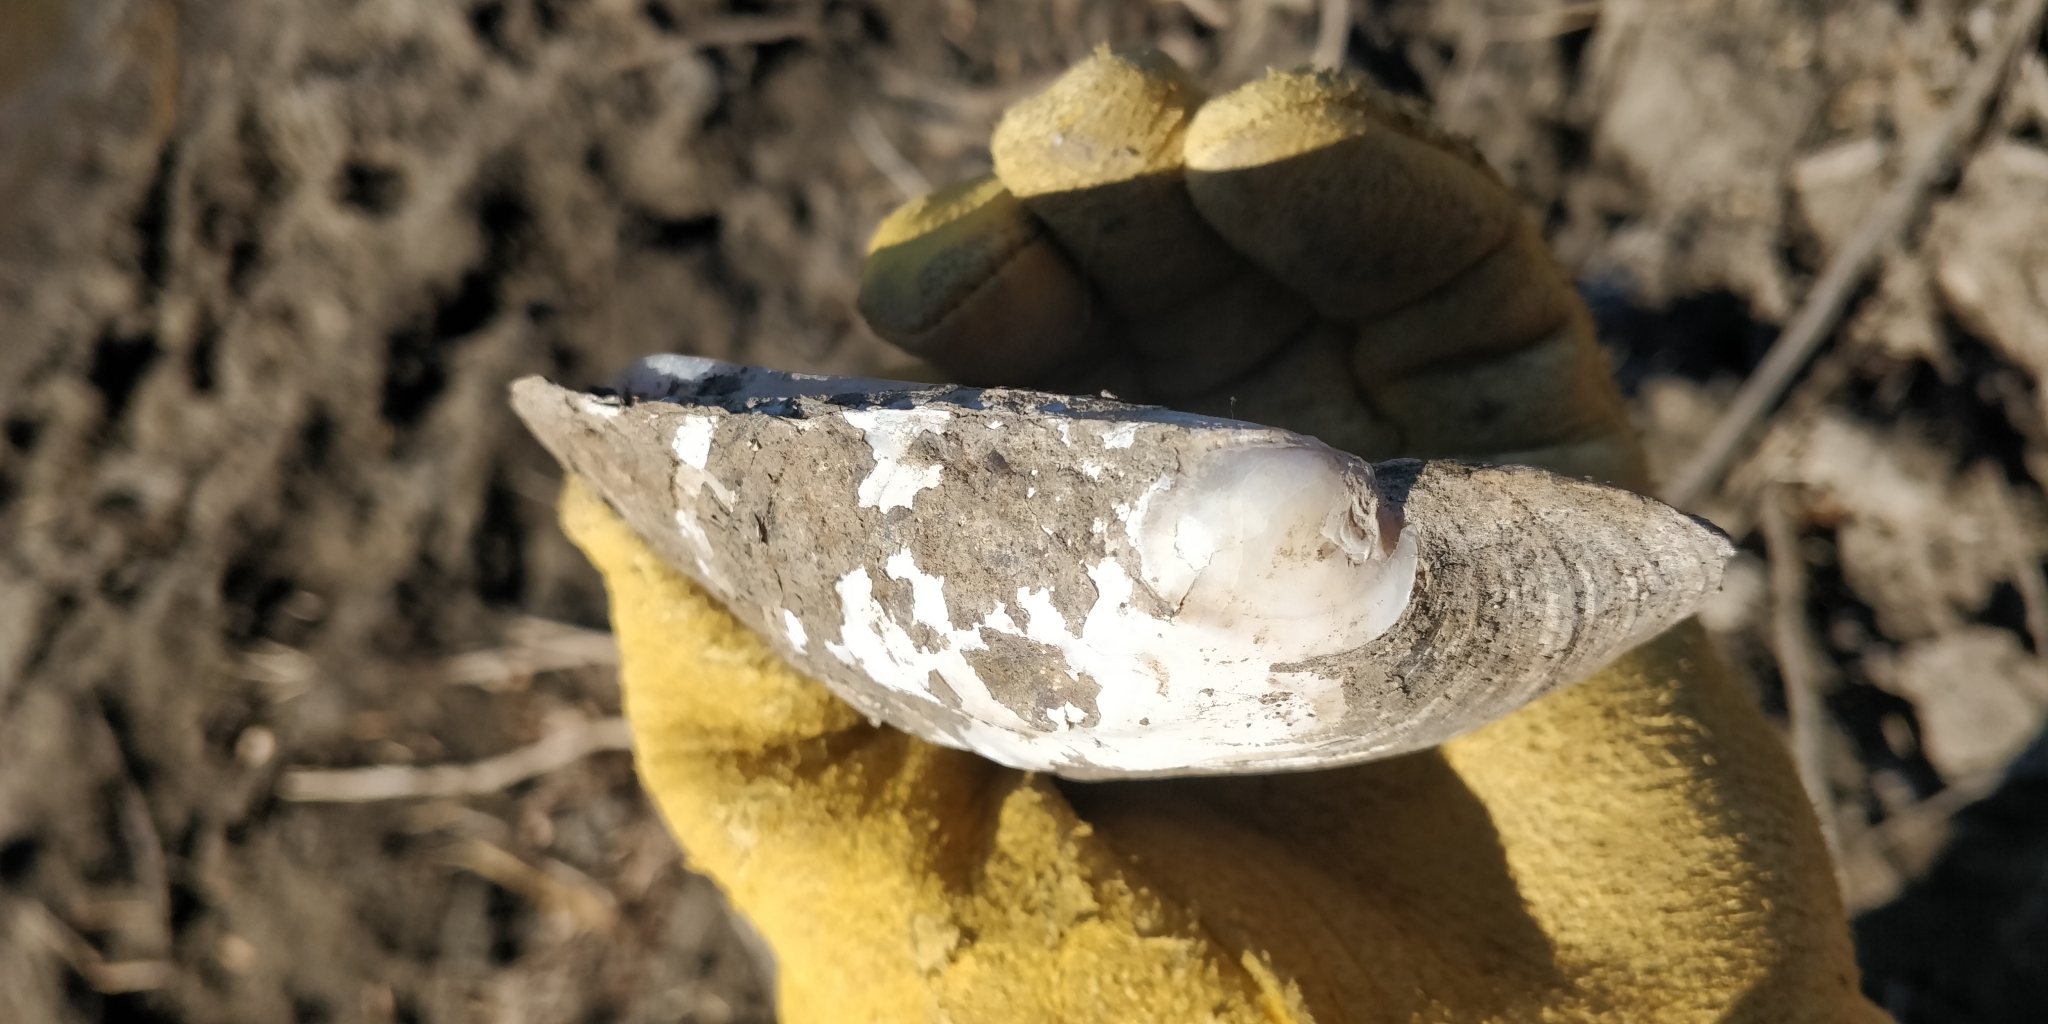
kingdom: Animalia
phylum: Mollusca
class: Bivalvia
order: Unionida
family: Unionidae
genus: Amblema
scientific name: Amblema plicata
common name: Threeridge
